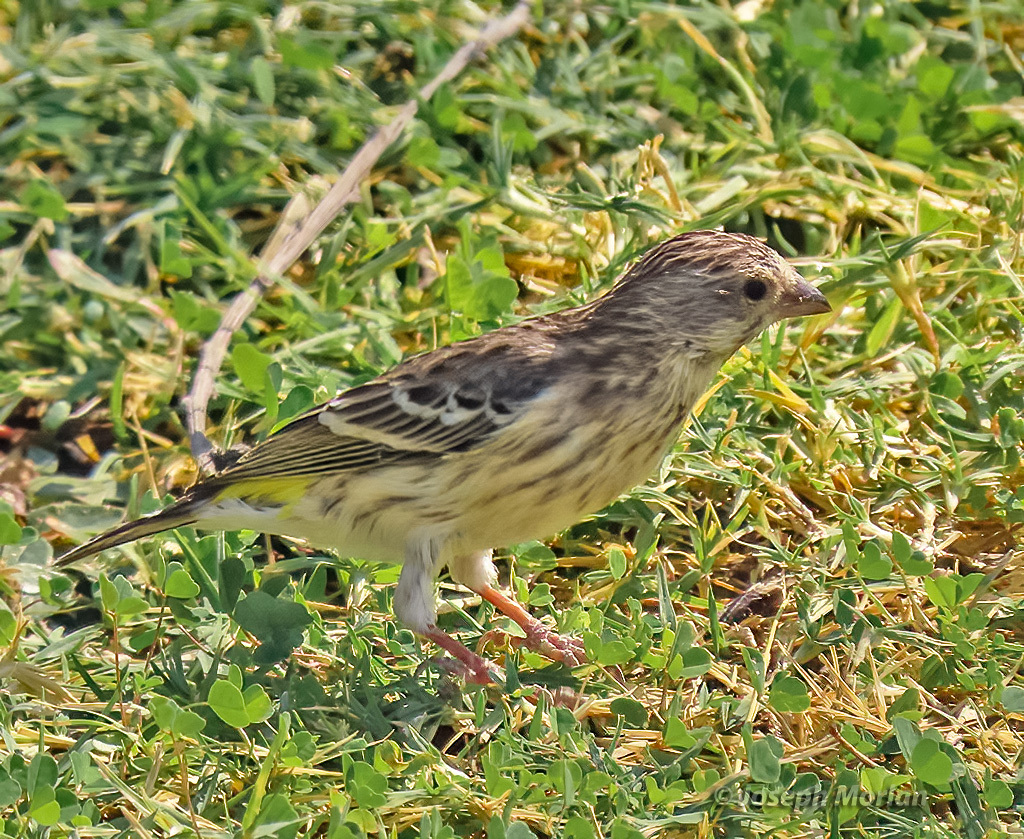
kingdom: Animalia
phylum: Chordata
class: Aves
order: Passeriformes
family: Fringillidae
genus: Crithagra
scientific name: Crithagra atrogularis
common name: Black-throated canary
